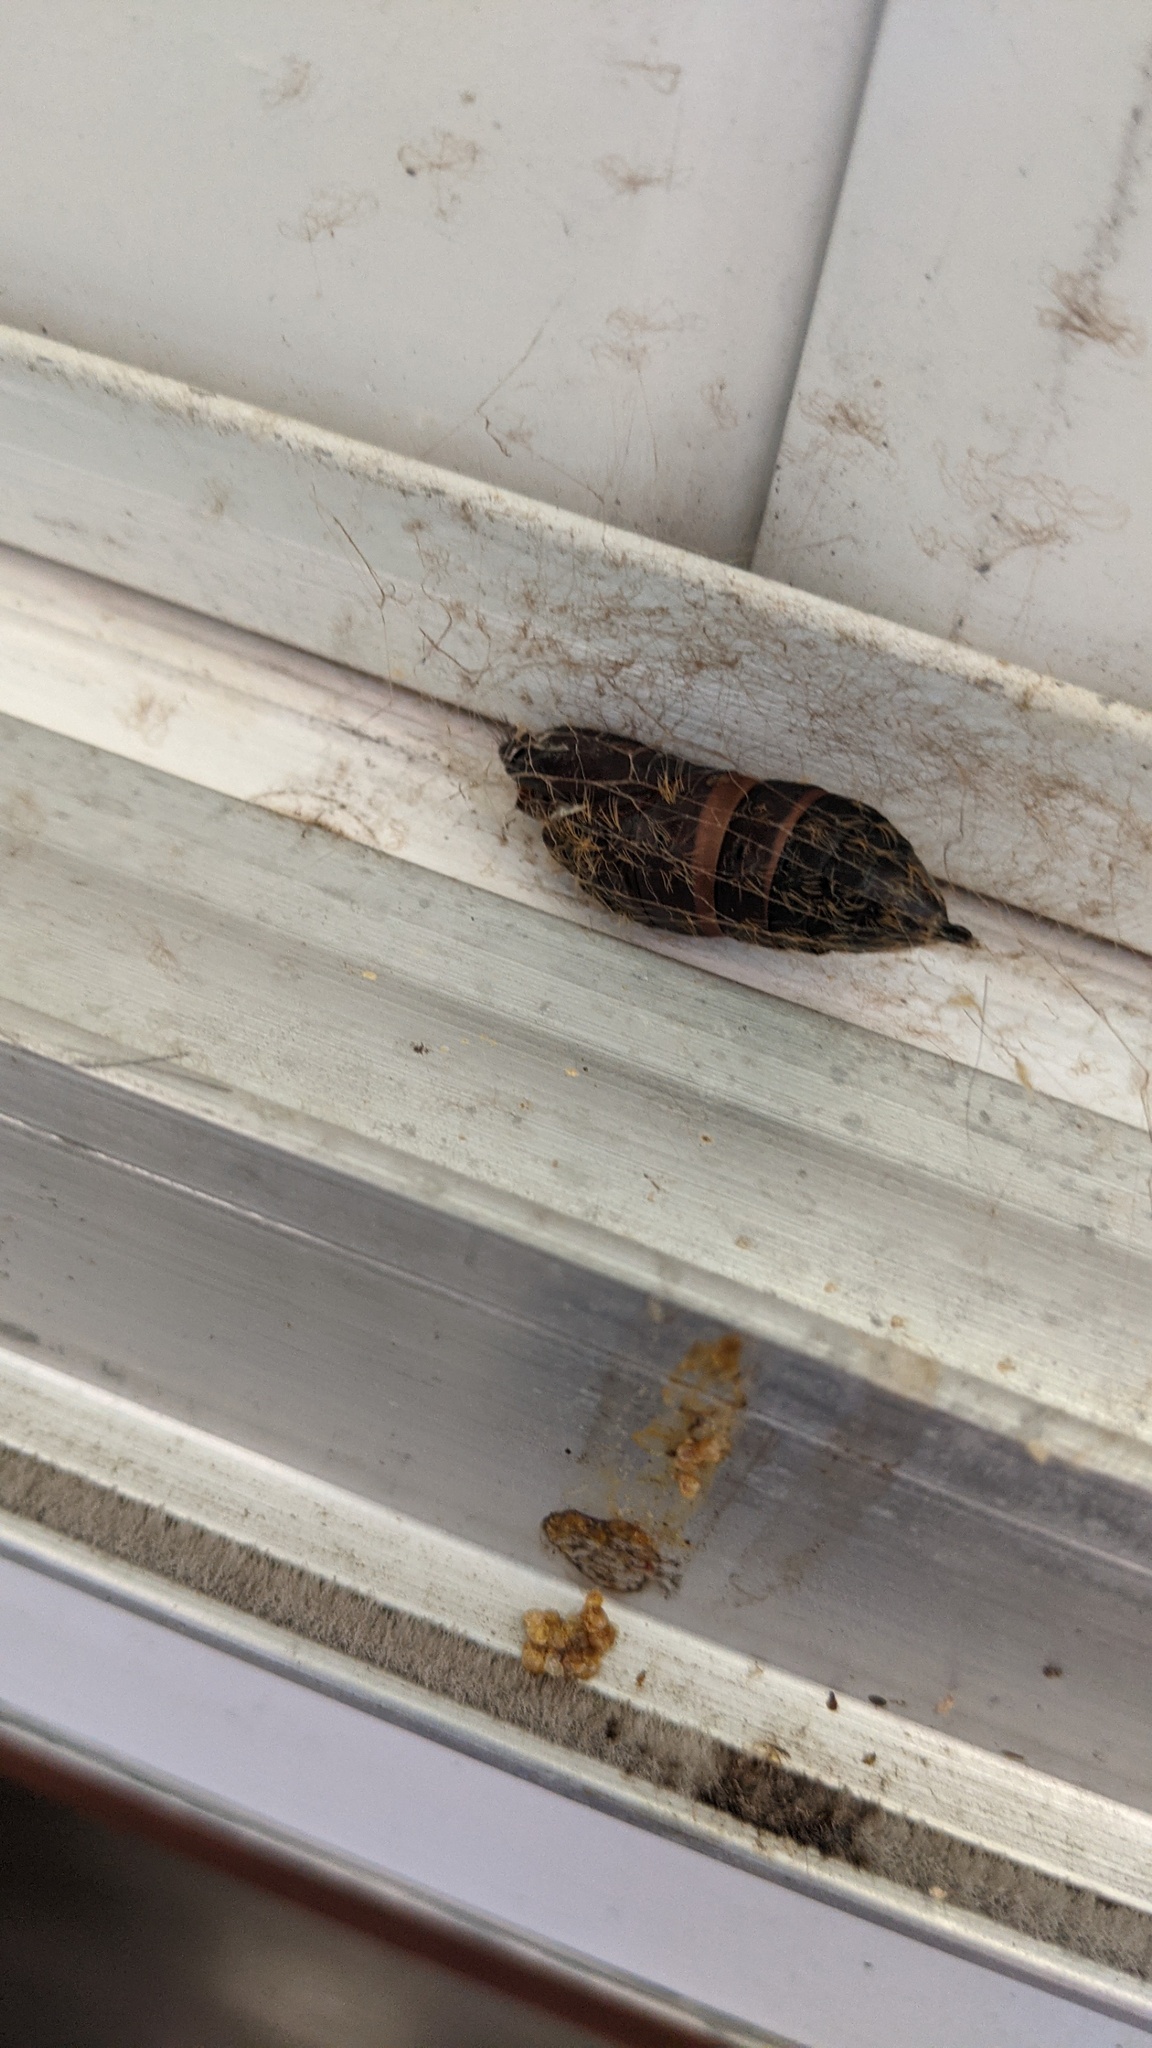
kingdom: Animalia
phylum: Arthropoda
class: Insecta
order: Lepidoptera
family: Erebidae
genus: Lymantria
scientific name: Lymantria dispar
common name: Gypsy moth
